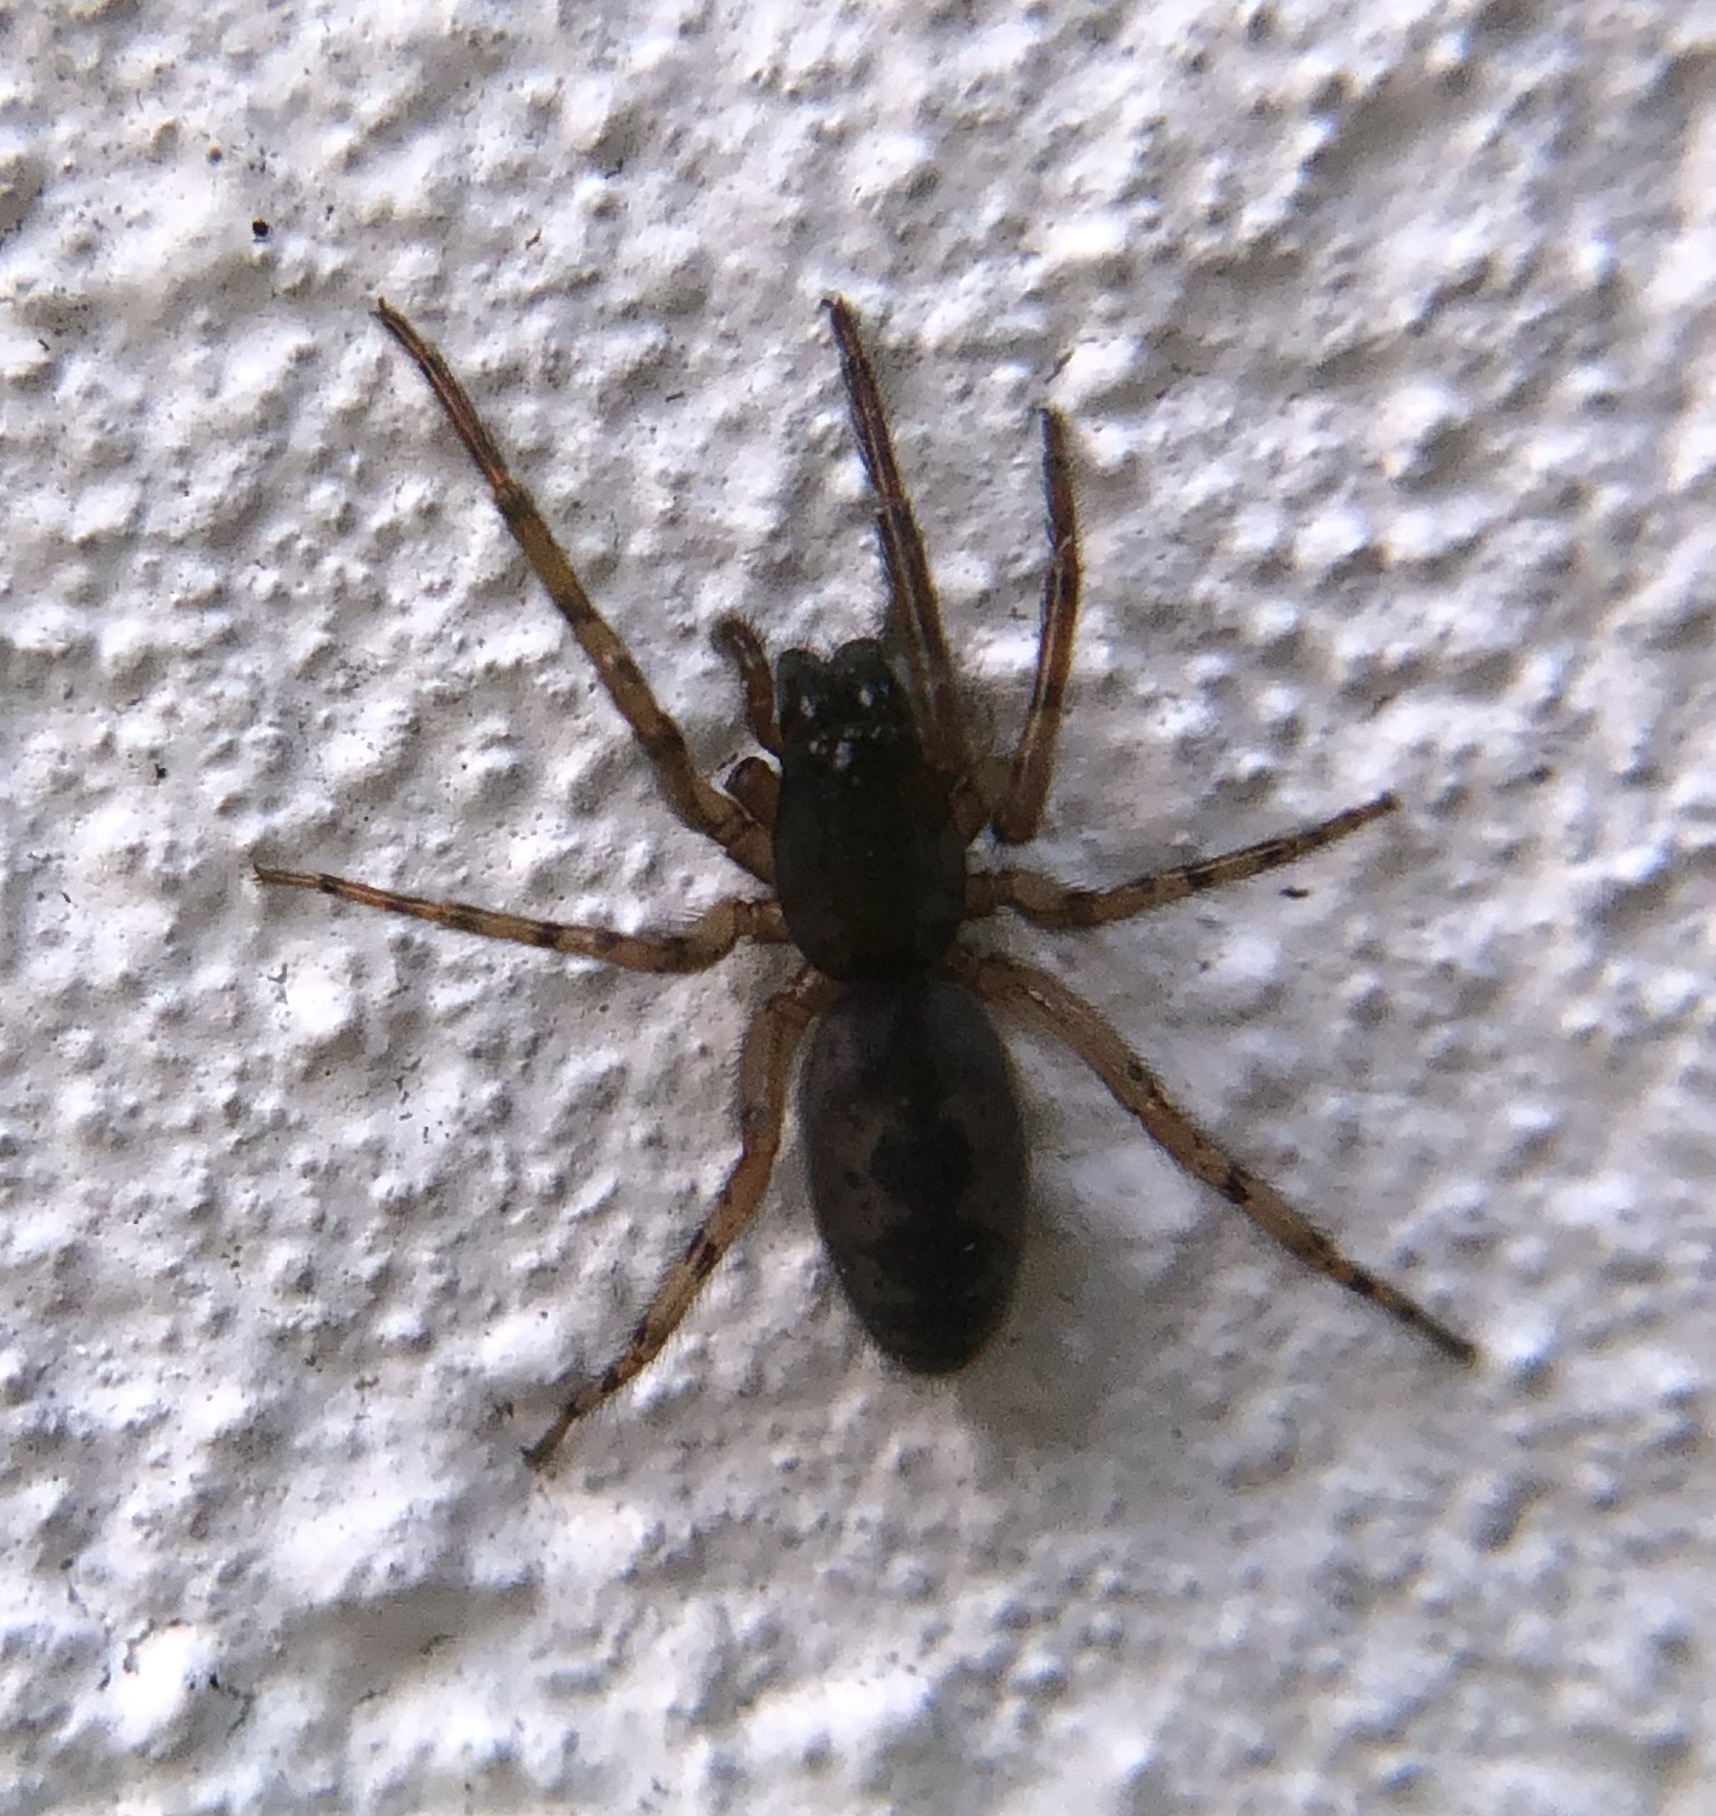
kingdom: Animalia
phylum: Arthropoda
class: Arachnida
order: Araneae
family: Segestriidae
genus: Segestria
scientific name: Segestria senoculata
